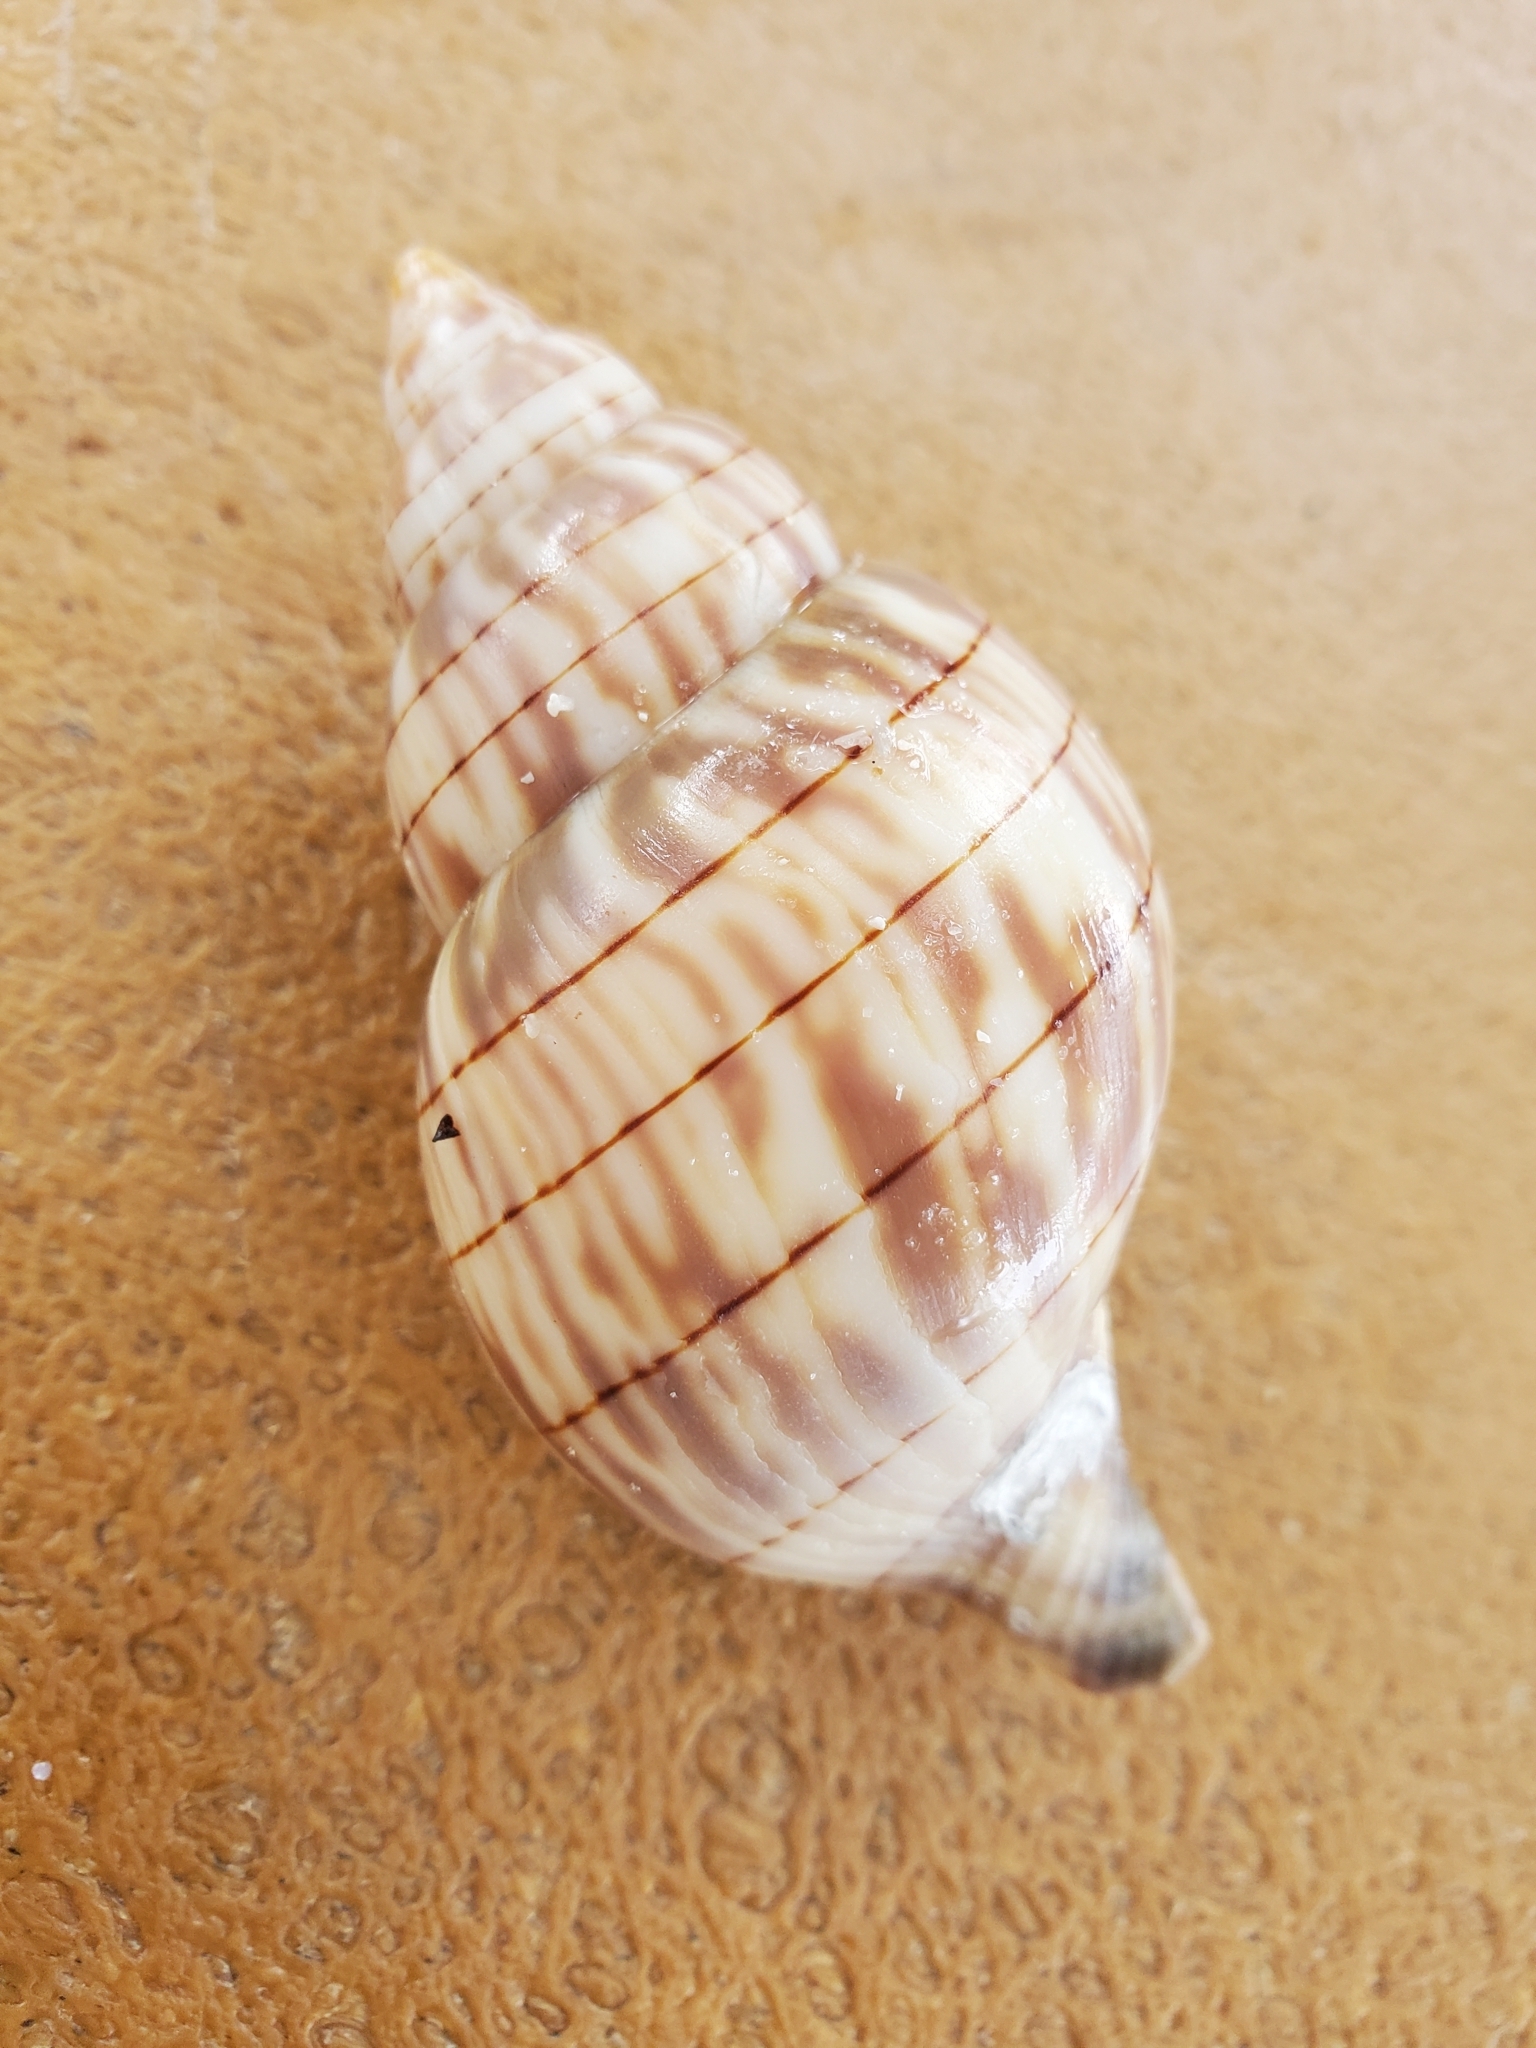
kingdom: Animalia
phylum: Mollusca
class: Gastropoda
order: Neogastropoda
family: Fasciolariidae
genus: Cinctura
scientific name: Cinctura hunteria
